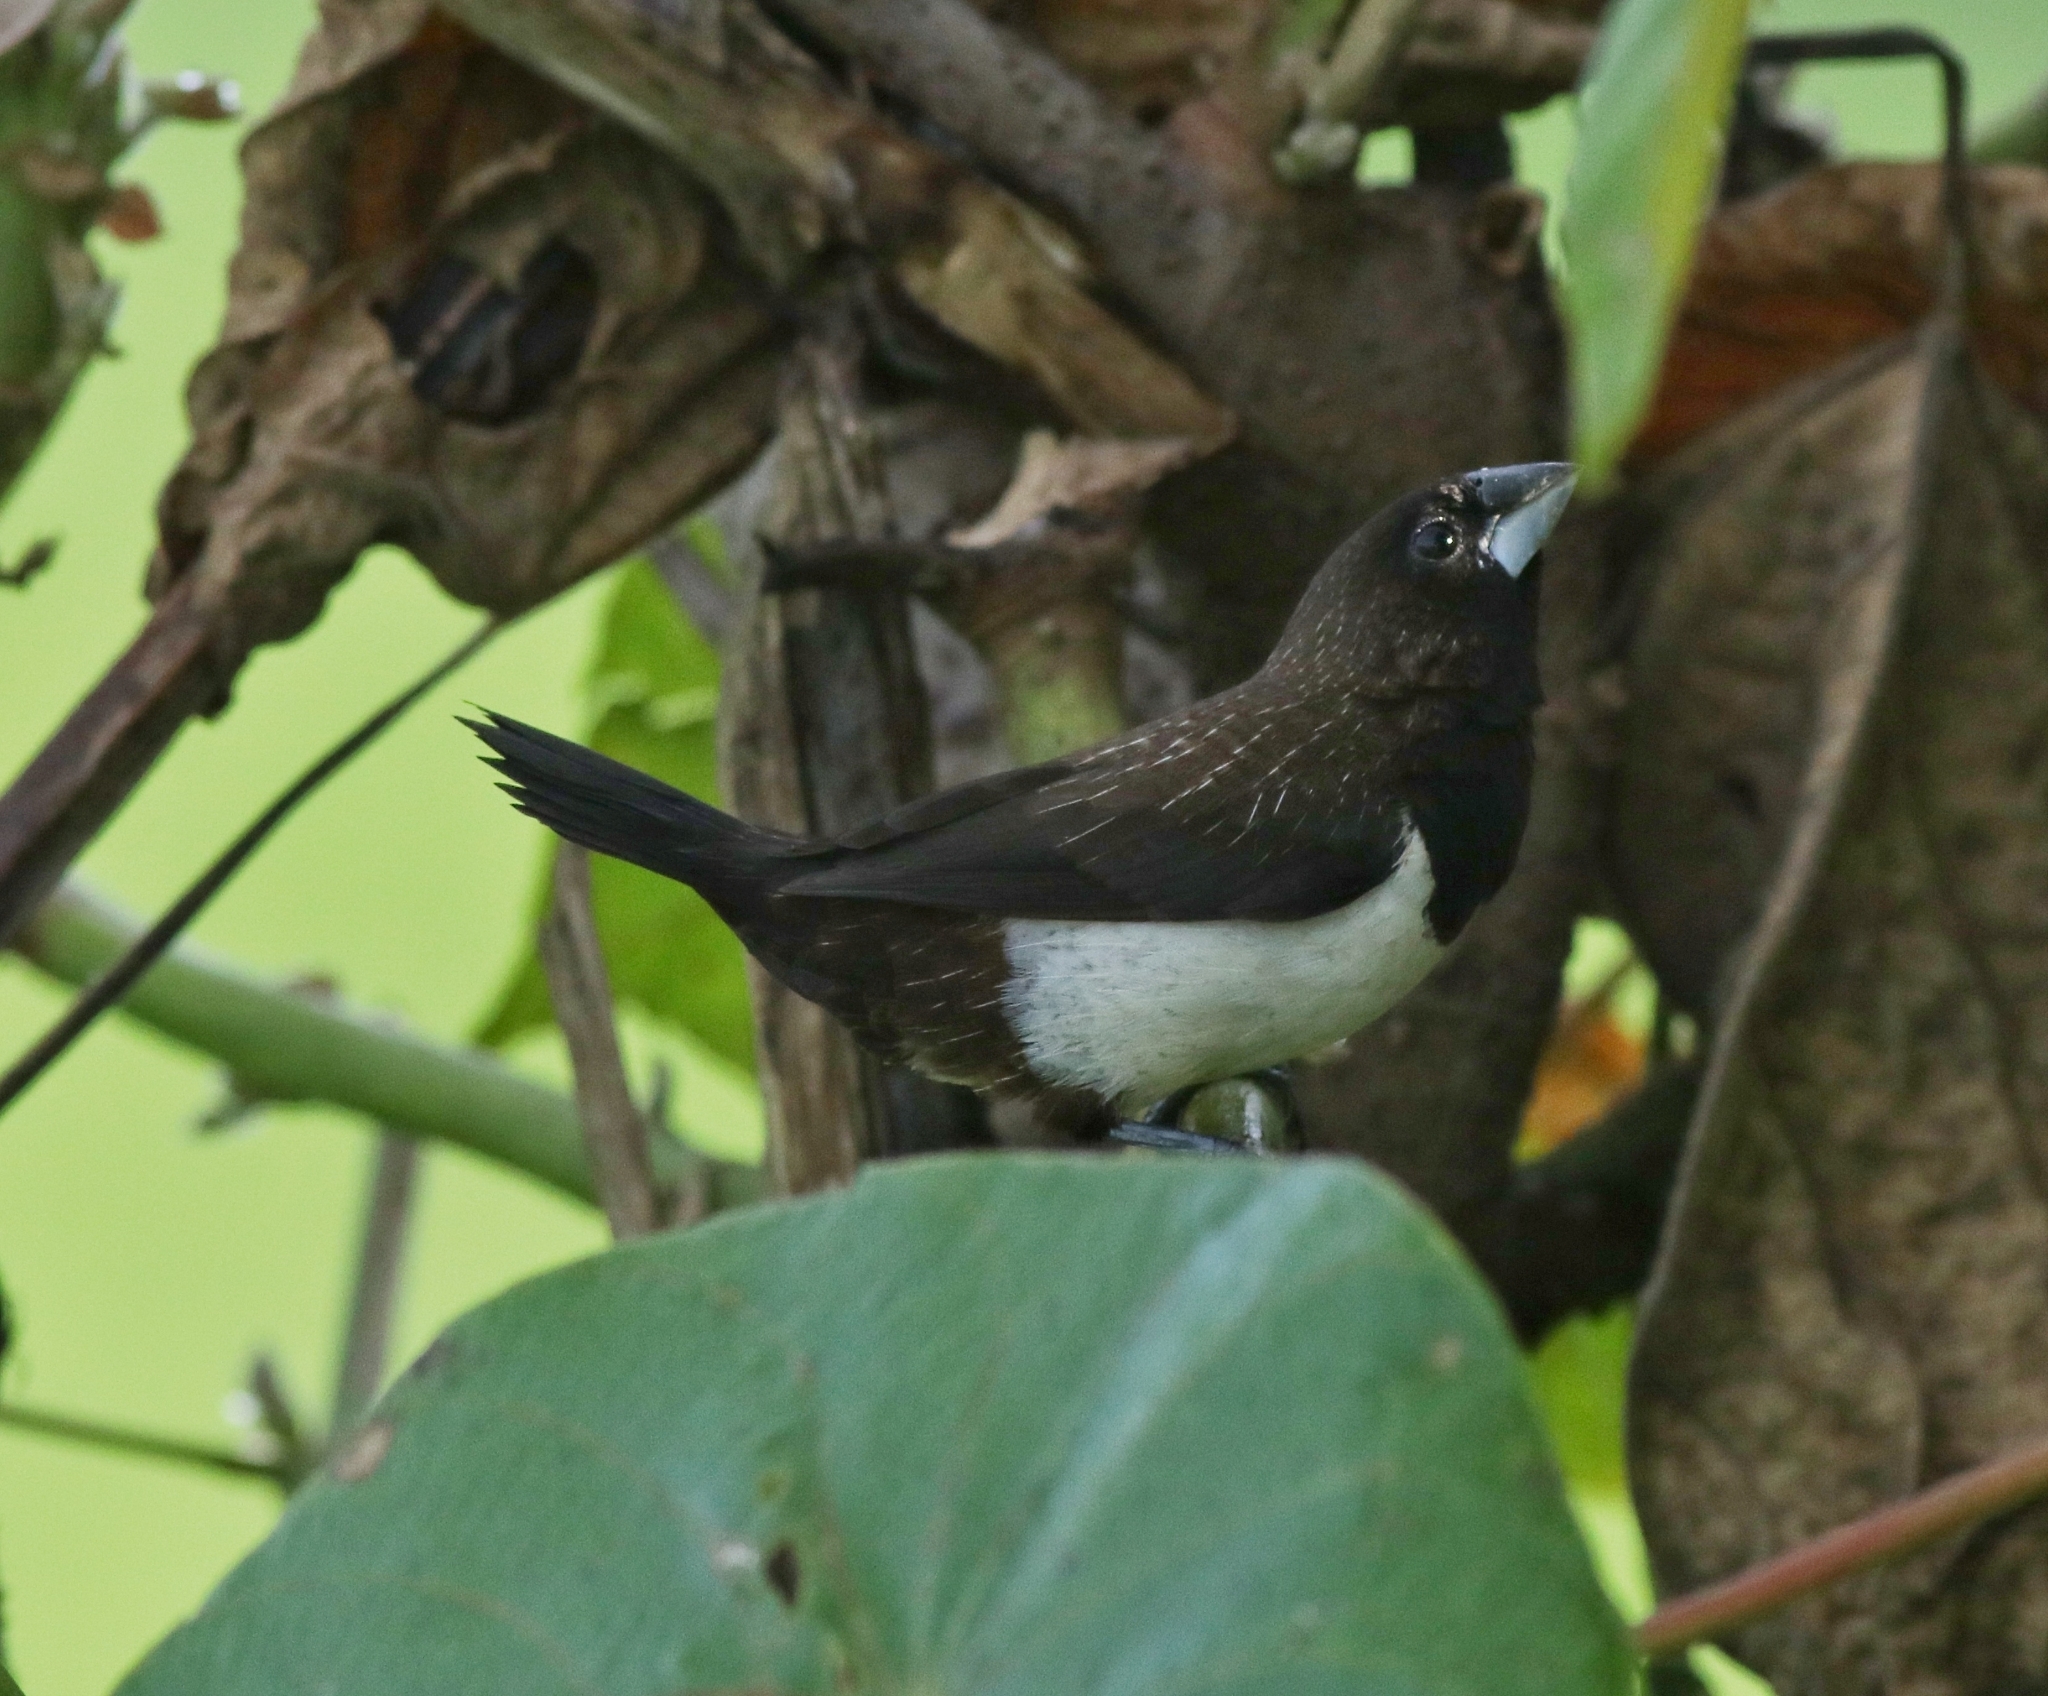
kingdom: Animalia
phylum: Chordata
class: Aves
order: Passeriformes
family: Estrildidae
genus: Lonchura
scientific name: Lonchura striata
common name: White-rumped munia
